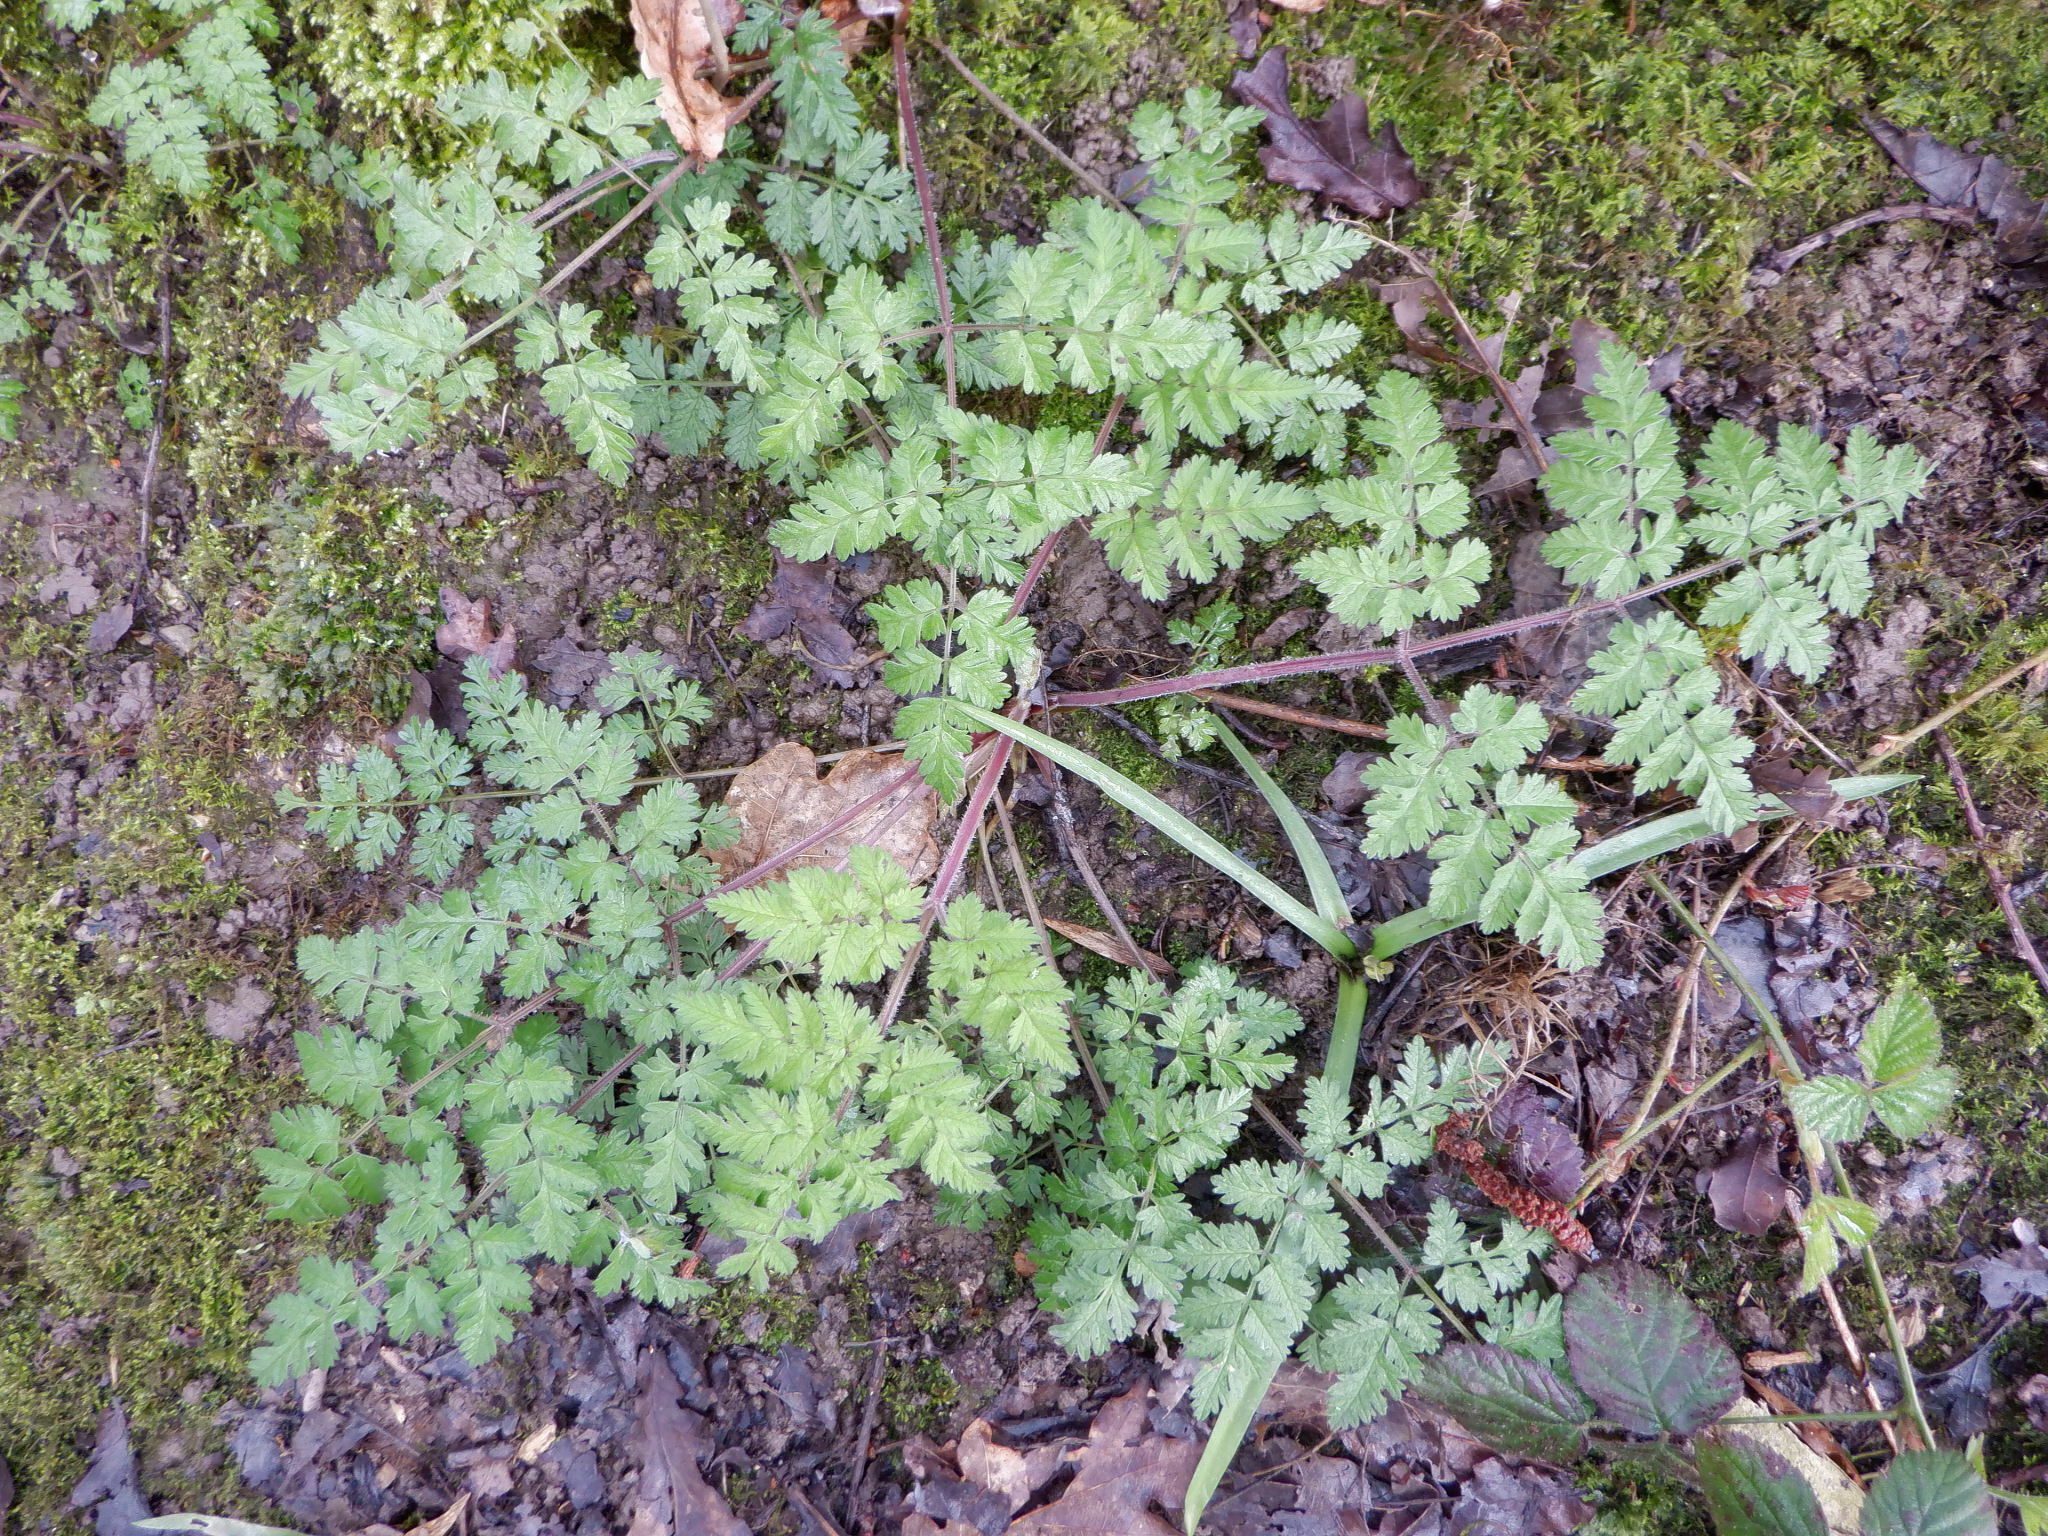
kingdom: Plantae
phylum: Tracheophyta
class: Magnoliopsida
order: Apiales
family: Apiaceae
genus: Anthriscus
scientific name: Anthriscus sylvestris
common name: Cow parsley
